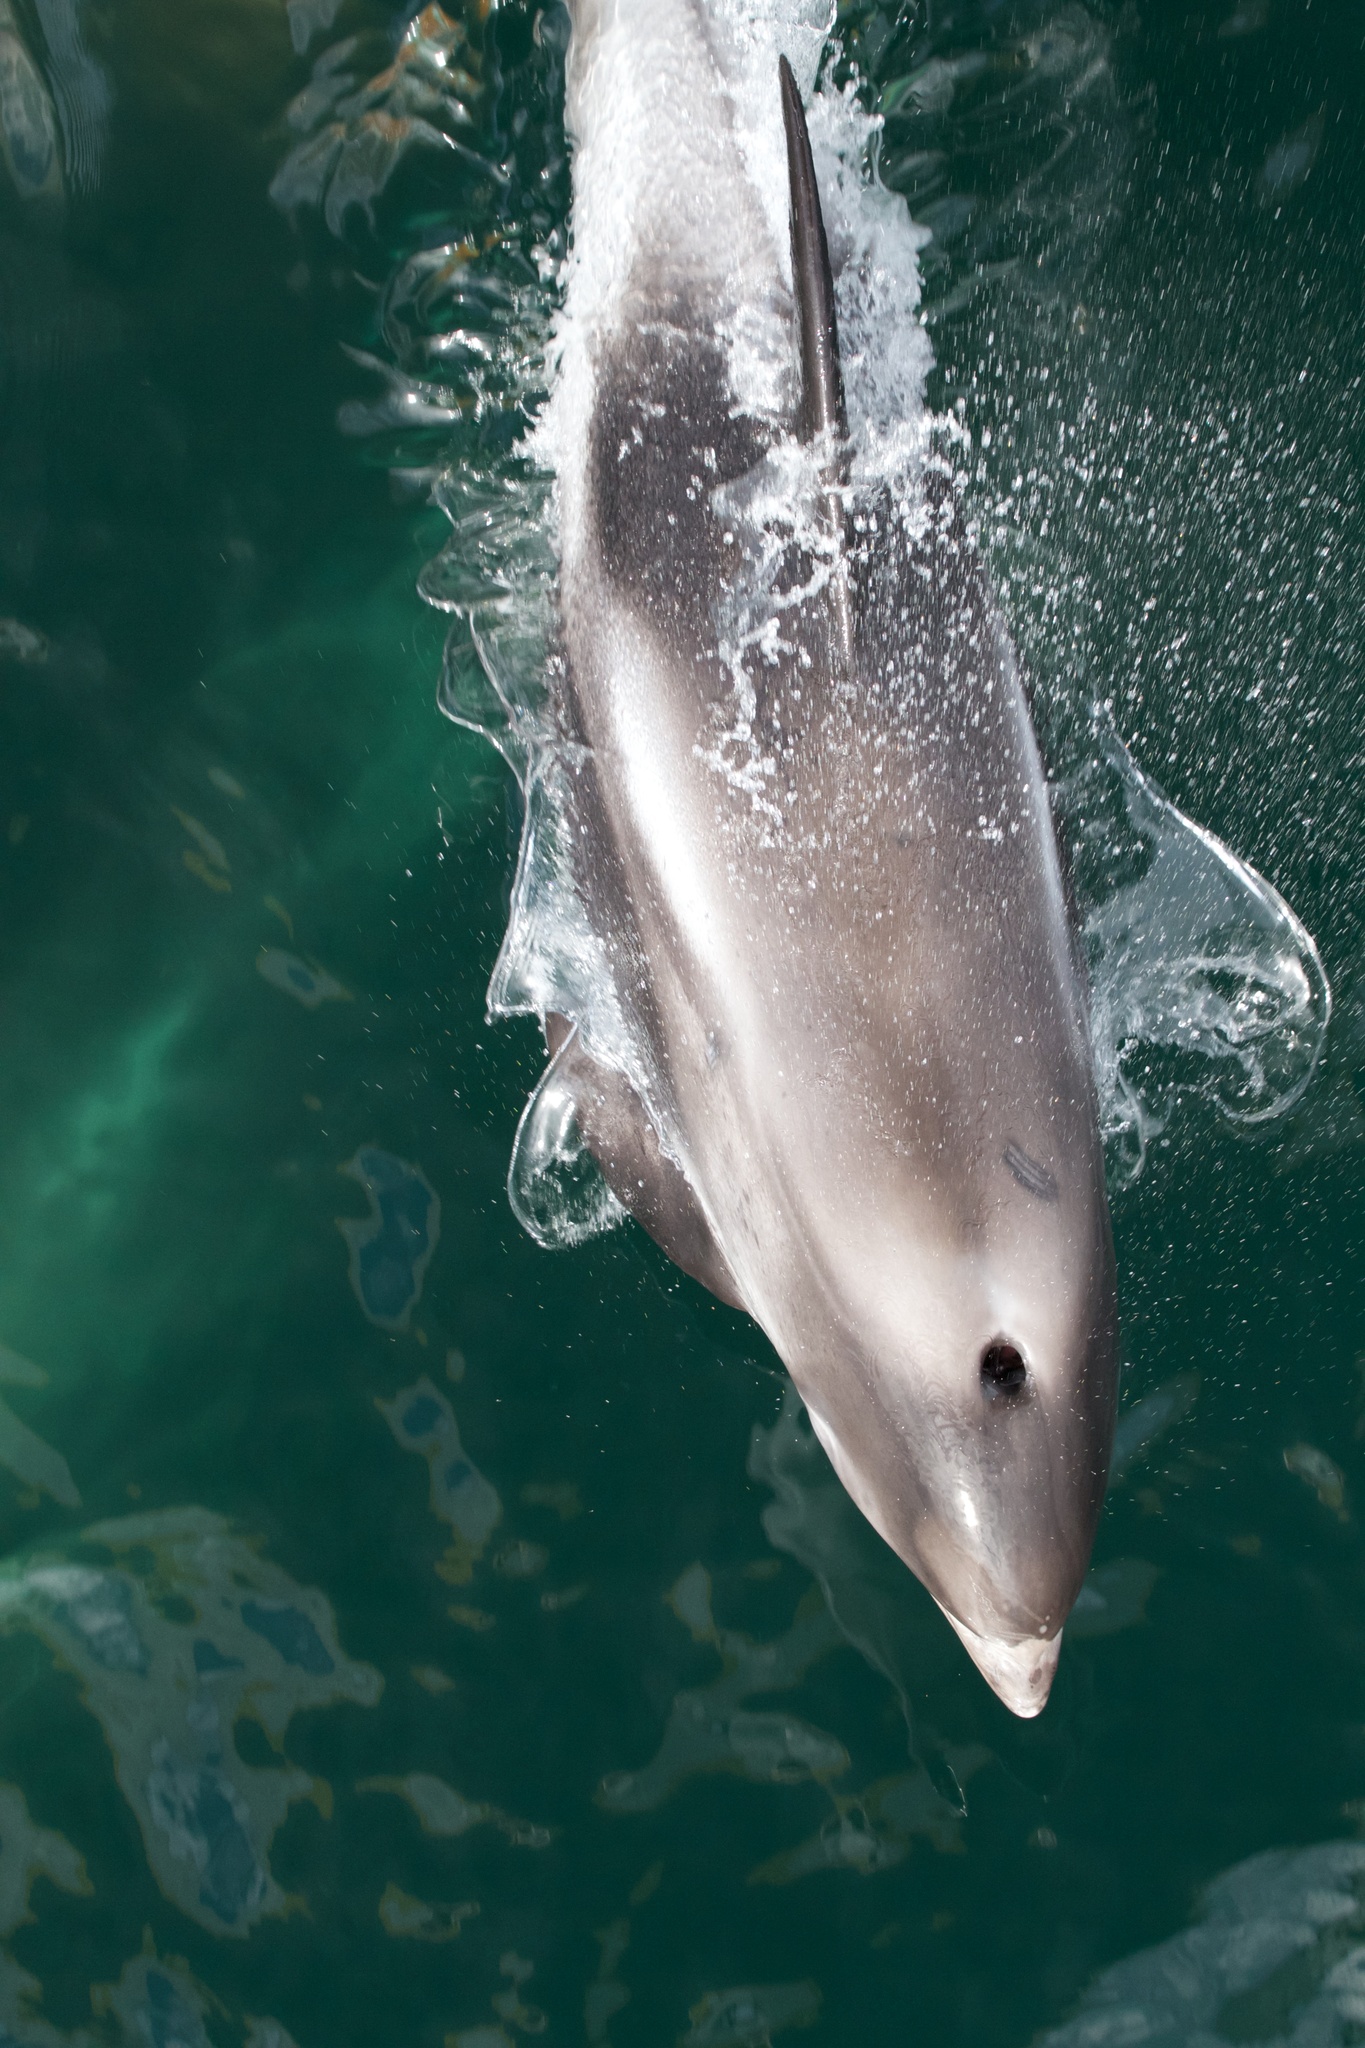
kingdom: Animalia
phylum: Chordata
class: Mammalia
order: Cetacea
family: Delphinidae
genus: Lagenorhynchus
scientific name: Lagenorhynchus albirostris
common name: White-beaked dolphin
